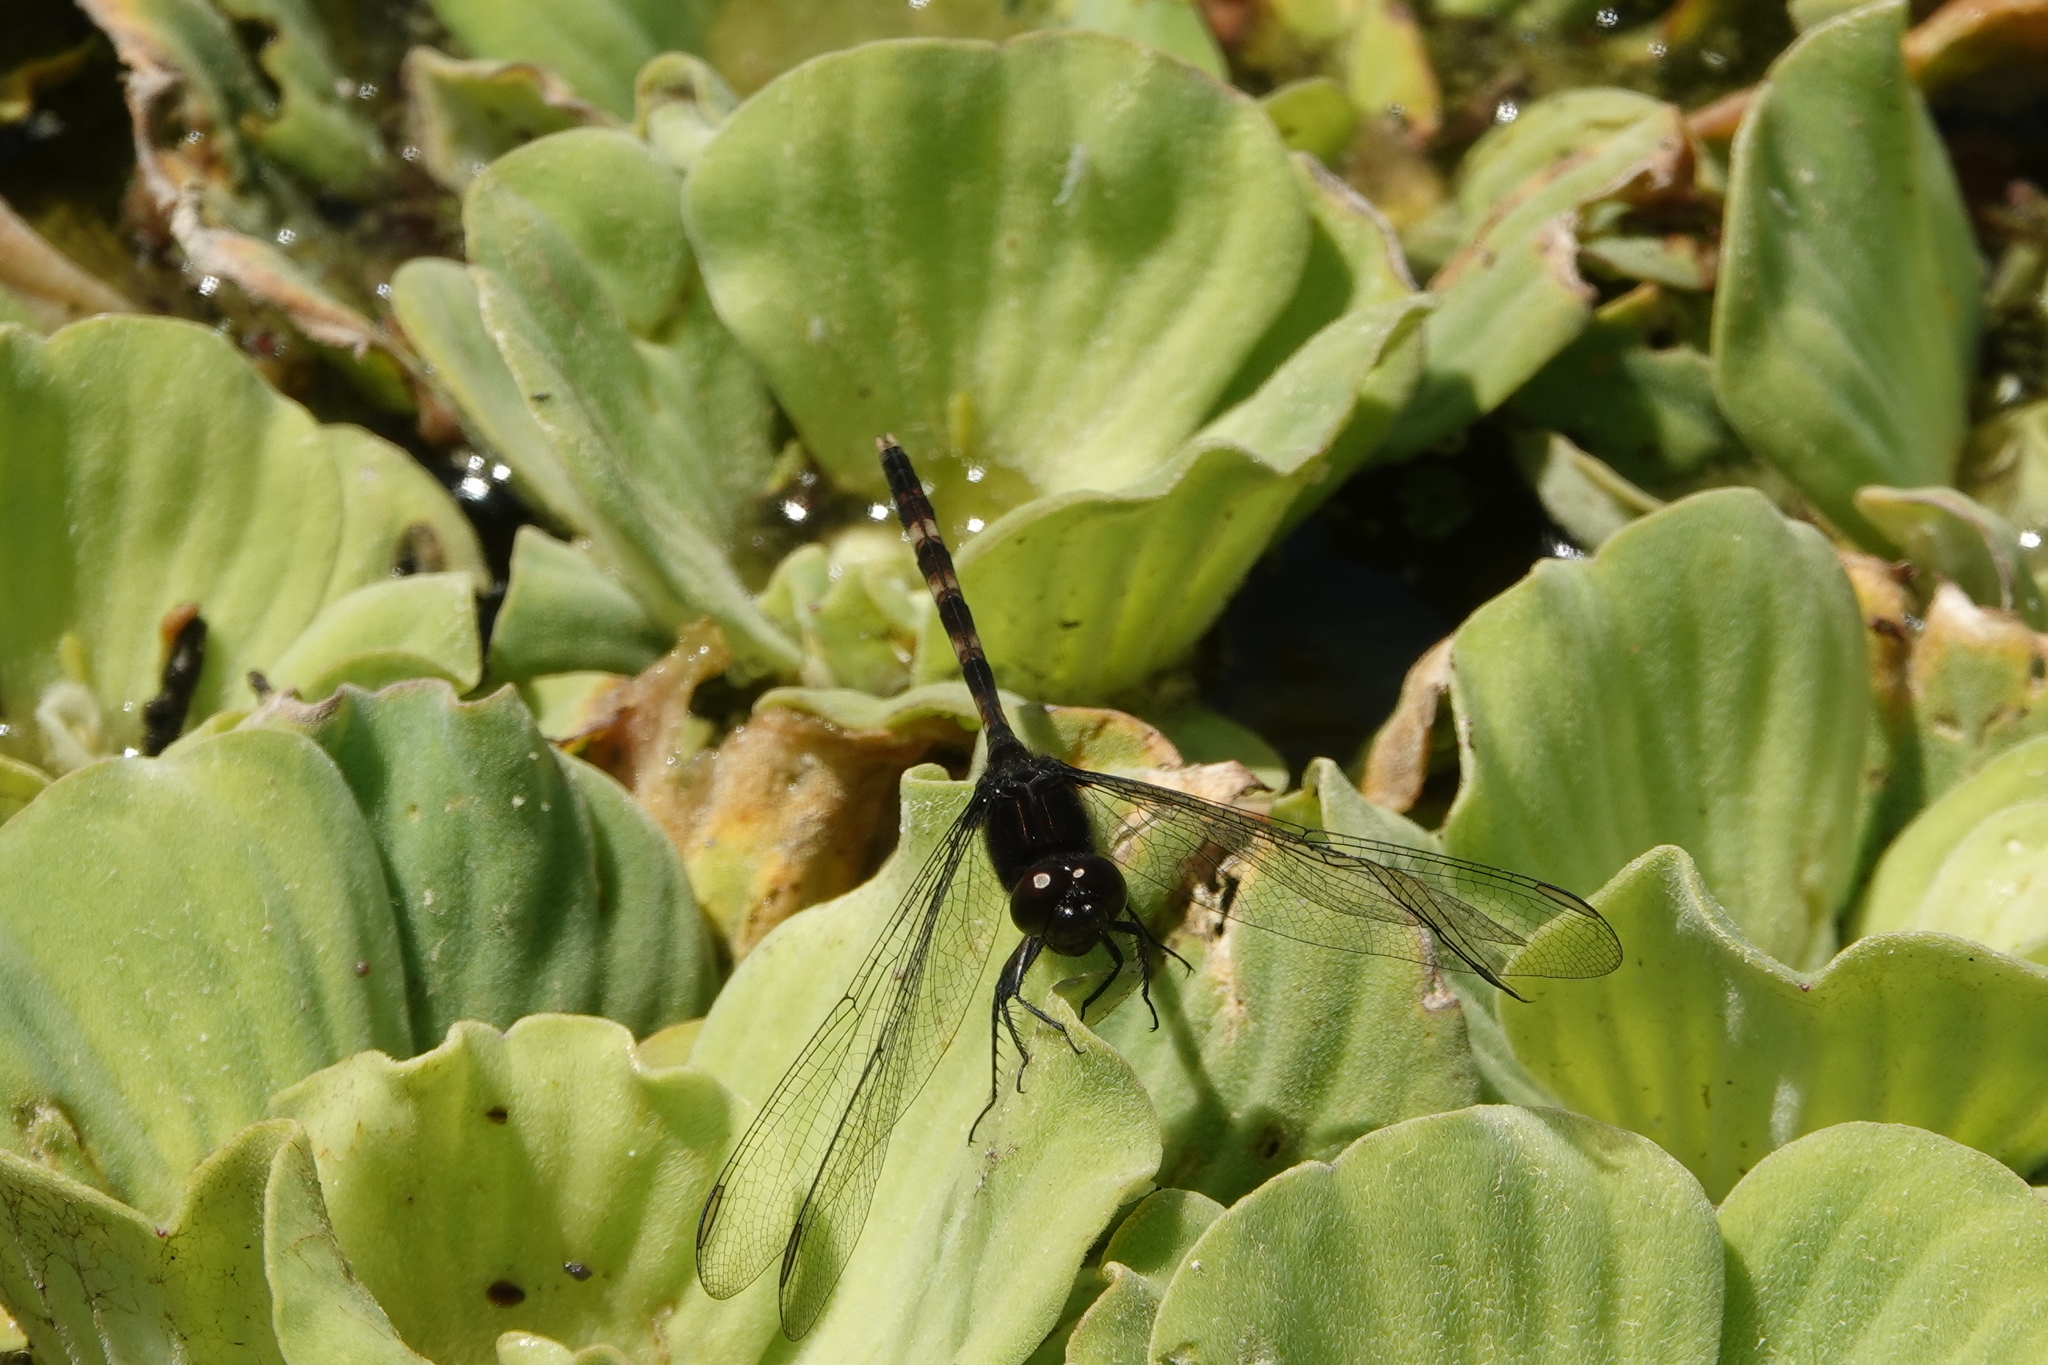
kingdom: Animalia
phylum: Arthropoda
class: Insecta
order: Odonata
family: Libellulidae
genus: Erythemis
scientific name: Erythemis plebeja
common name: Pin-tailed pondhawk
